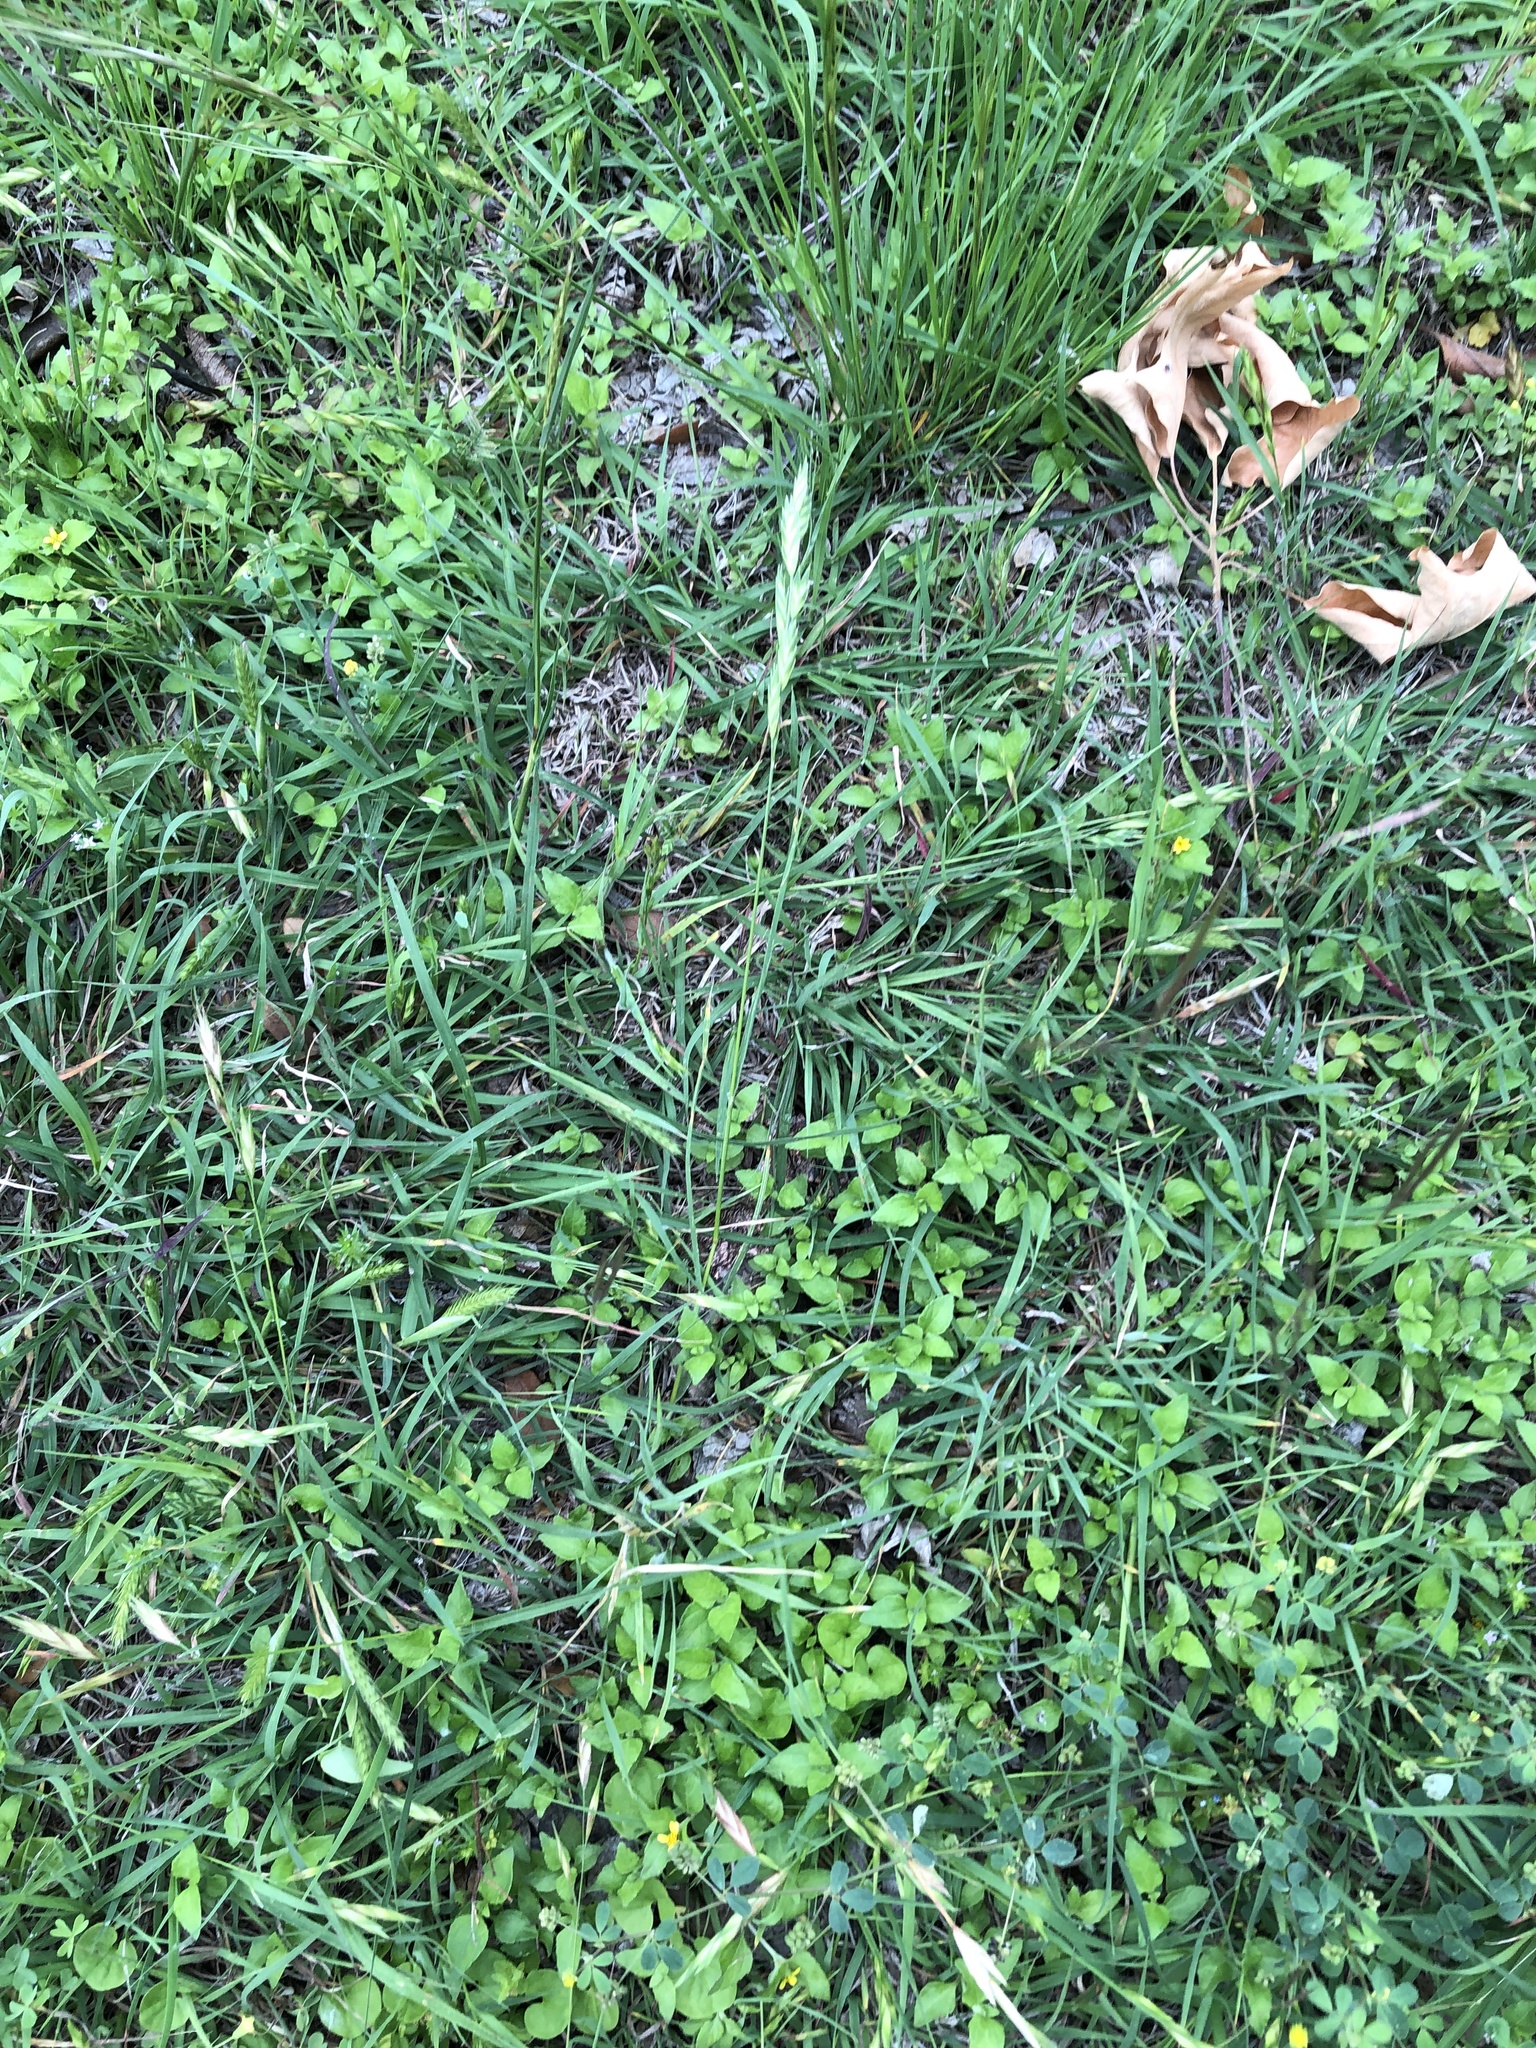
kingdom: Plantae
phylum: Tracheophyta
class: Liliopsida
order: Poales
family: Poaceae
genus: Bromus
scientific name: Bromus catharticus
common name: Rescuegrass
